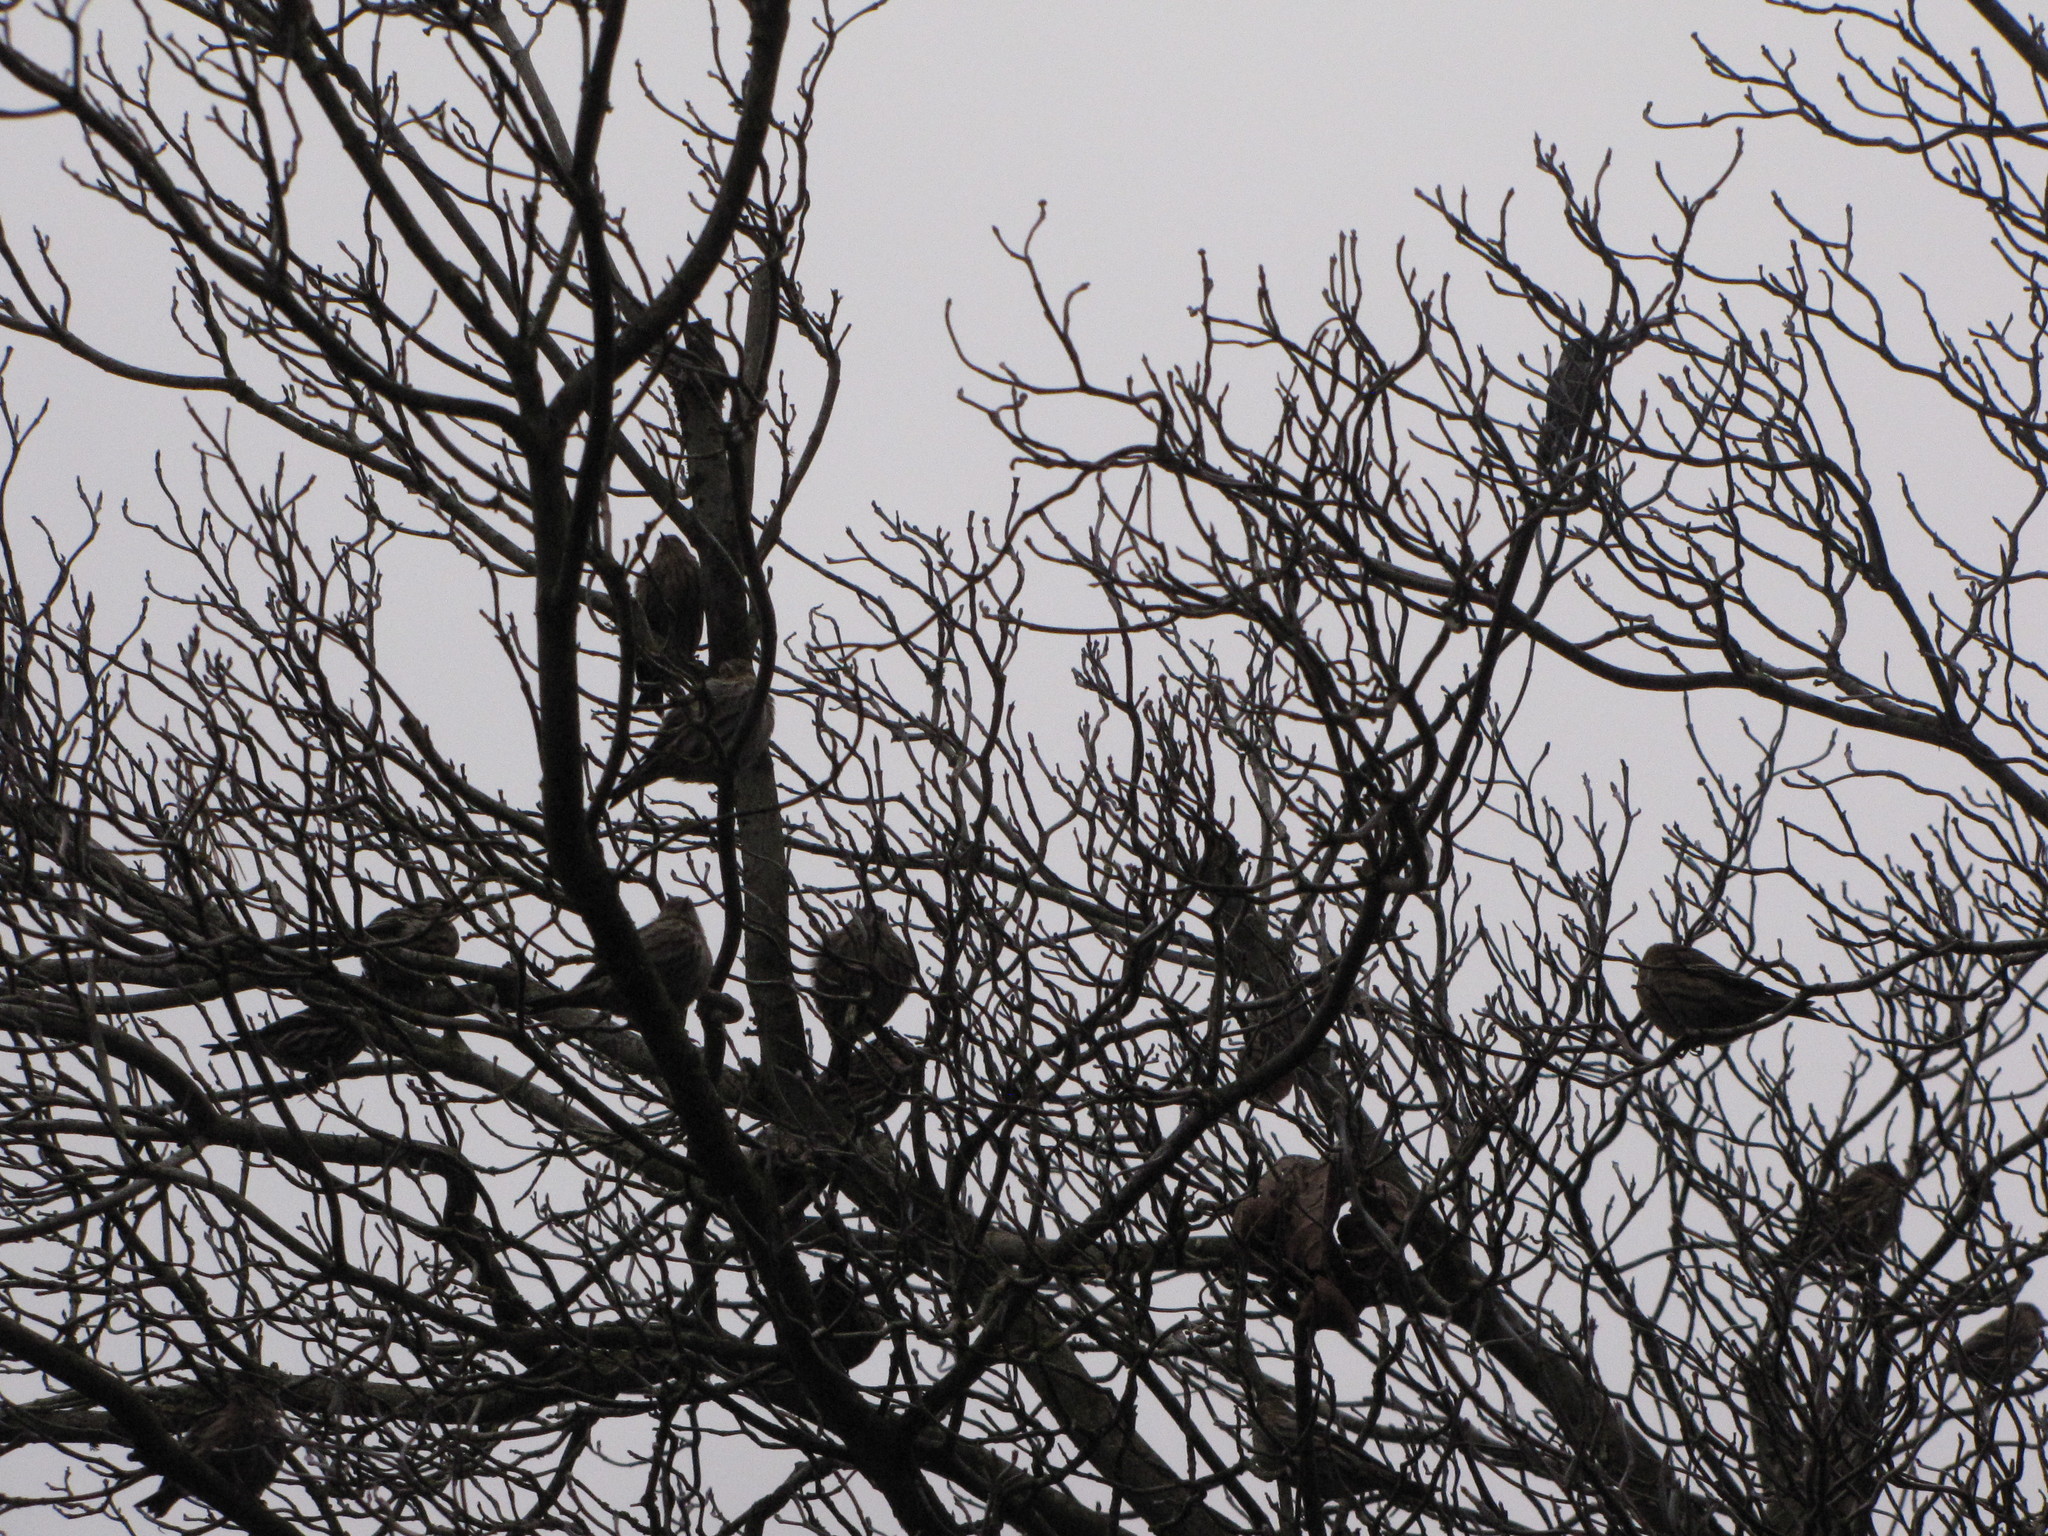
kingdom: Animalia
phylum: Chordata
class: Aves
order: Passeriformes
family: Fringillidae
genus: Spinus
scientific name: Spinus pinus
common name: Pine siskin
